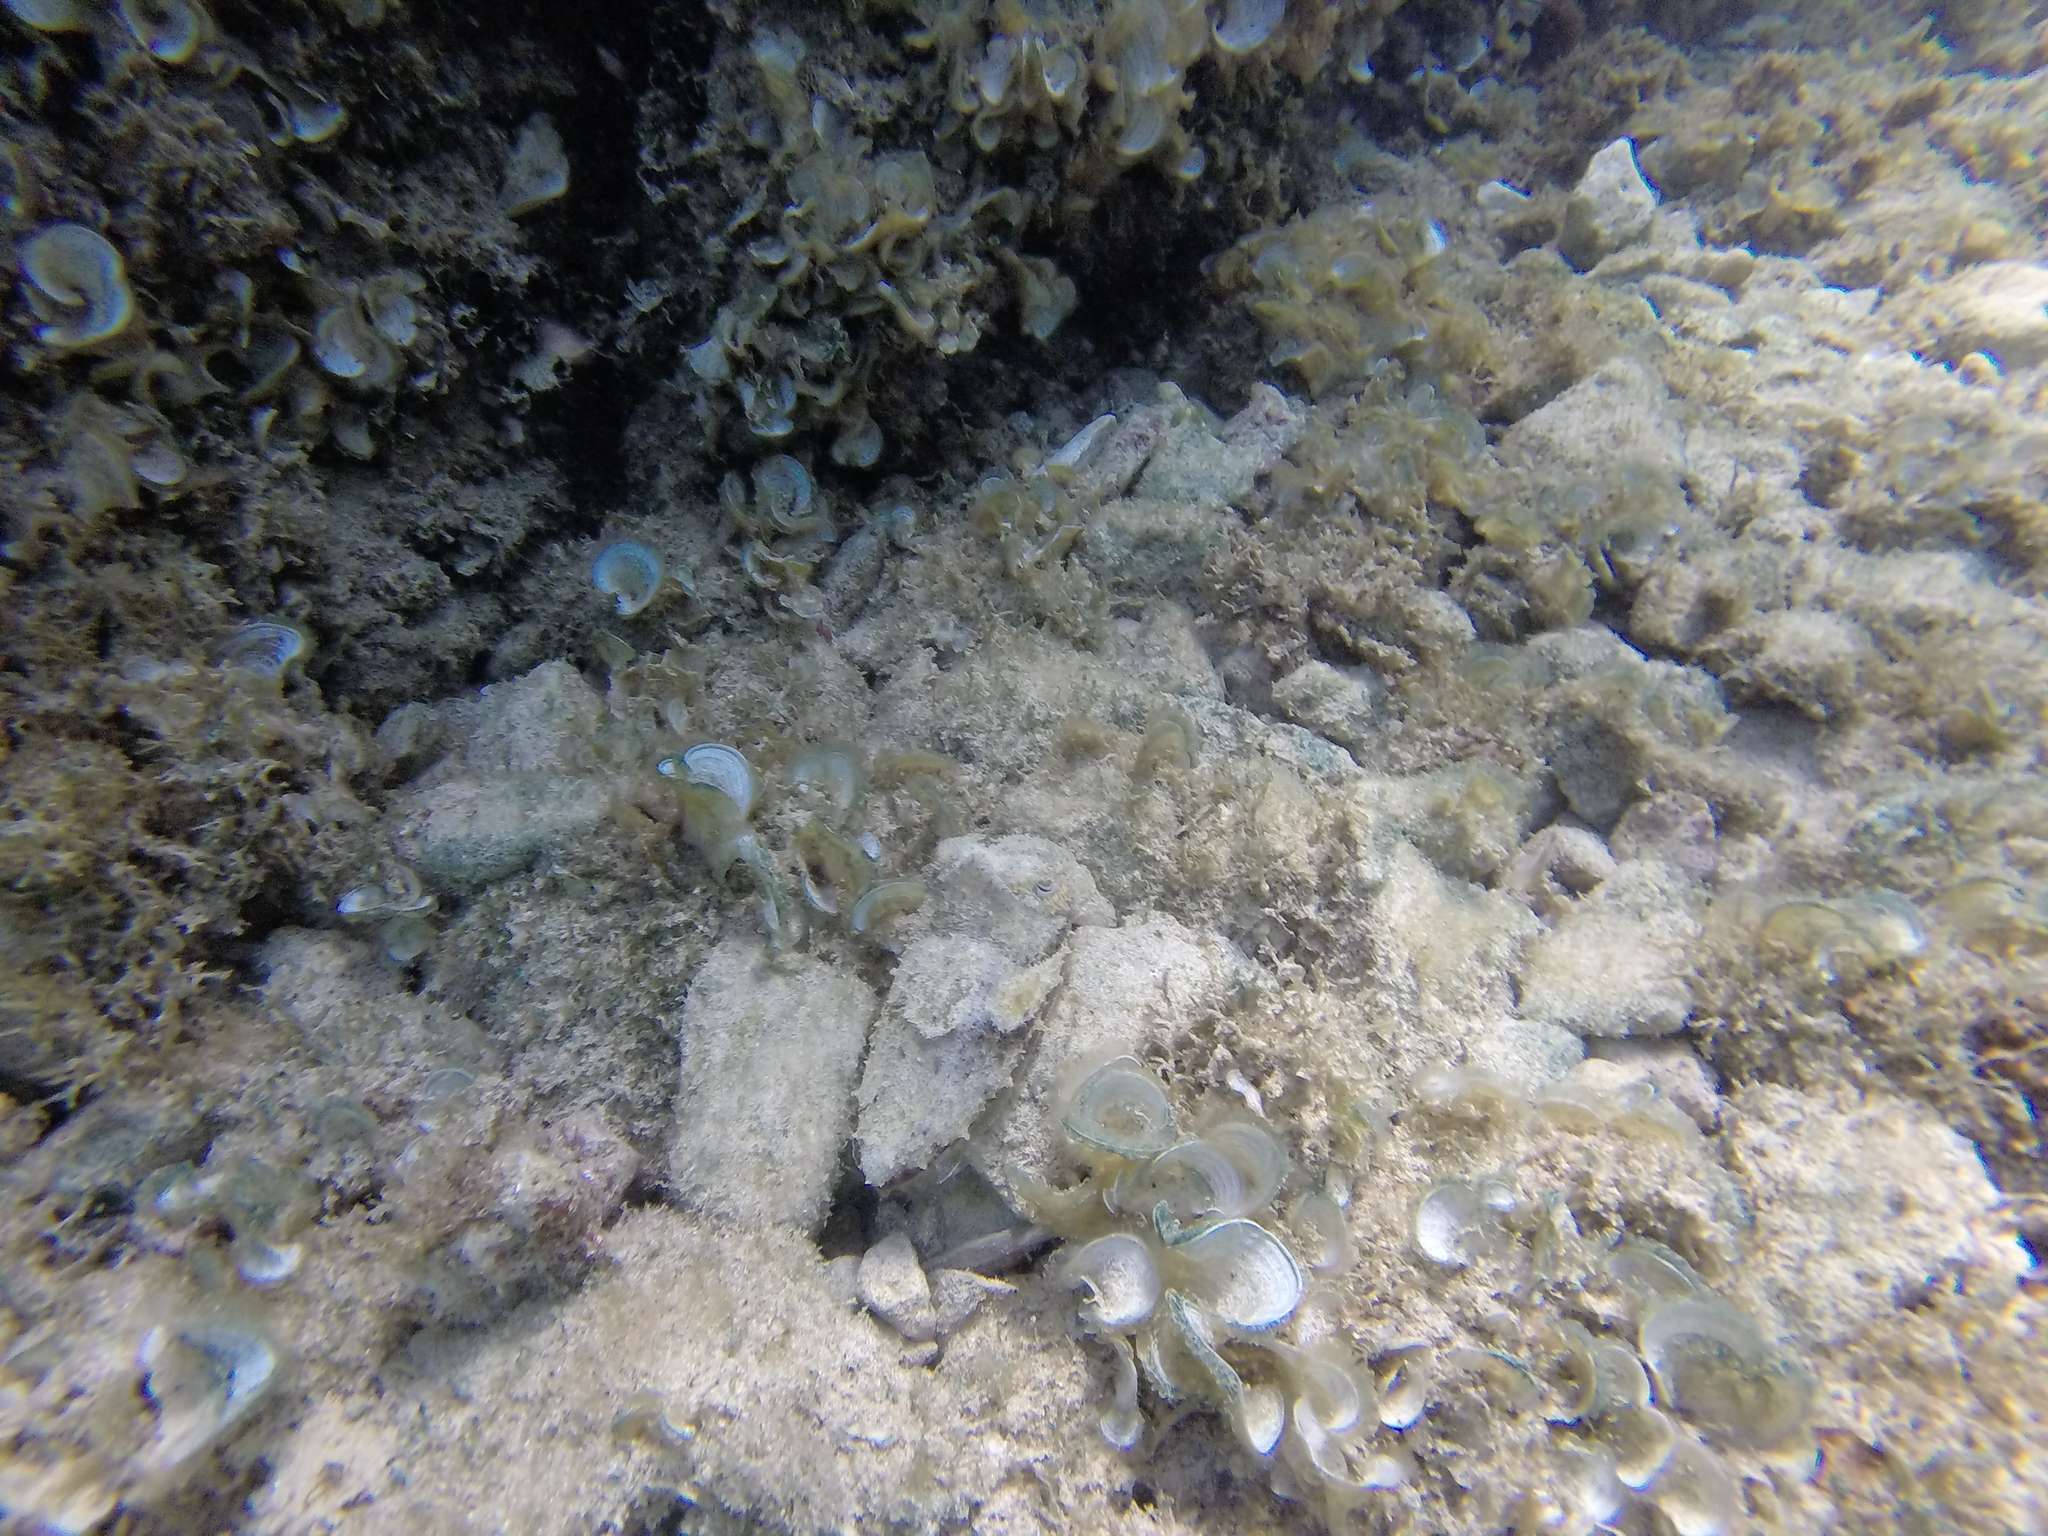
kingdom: Animalia
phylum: Mollusca
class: Cephalopoda
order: Sepiida
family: Sepiidae
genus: Sepia
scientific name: Sepia officinalis
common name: Common cuttlefish
